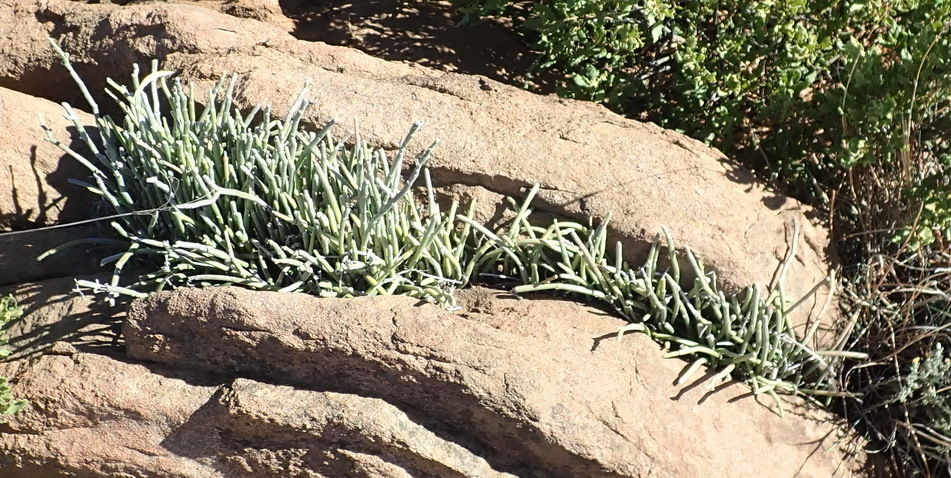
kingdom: Plantae
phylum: Tracheophyta
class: Magnoliopsida
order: Gentianales
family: Apocynaceae
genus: Cynanchum
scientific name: Cynanchum viminale
